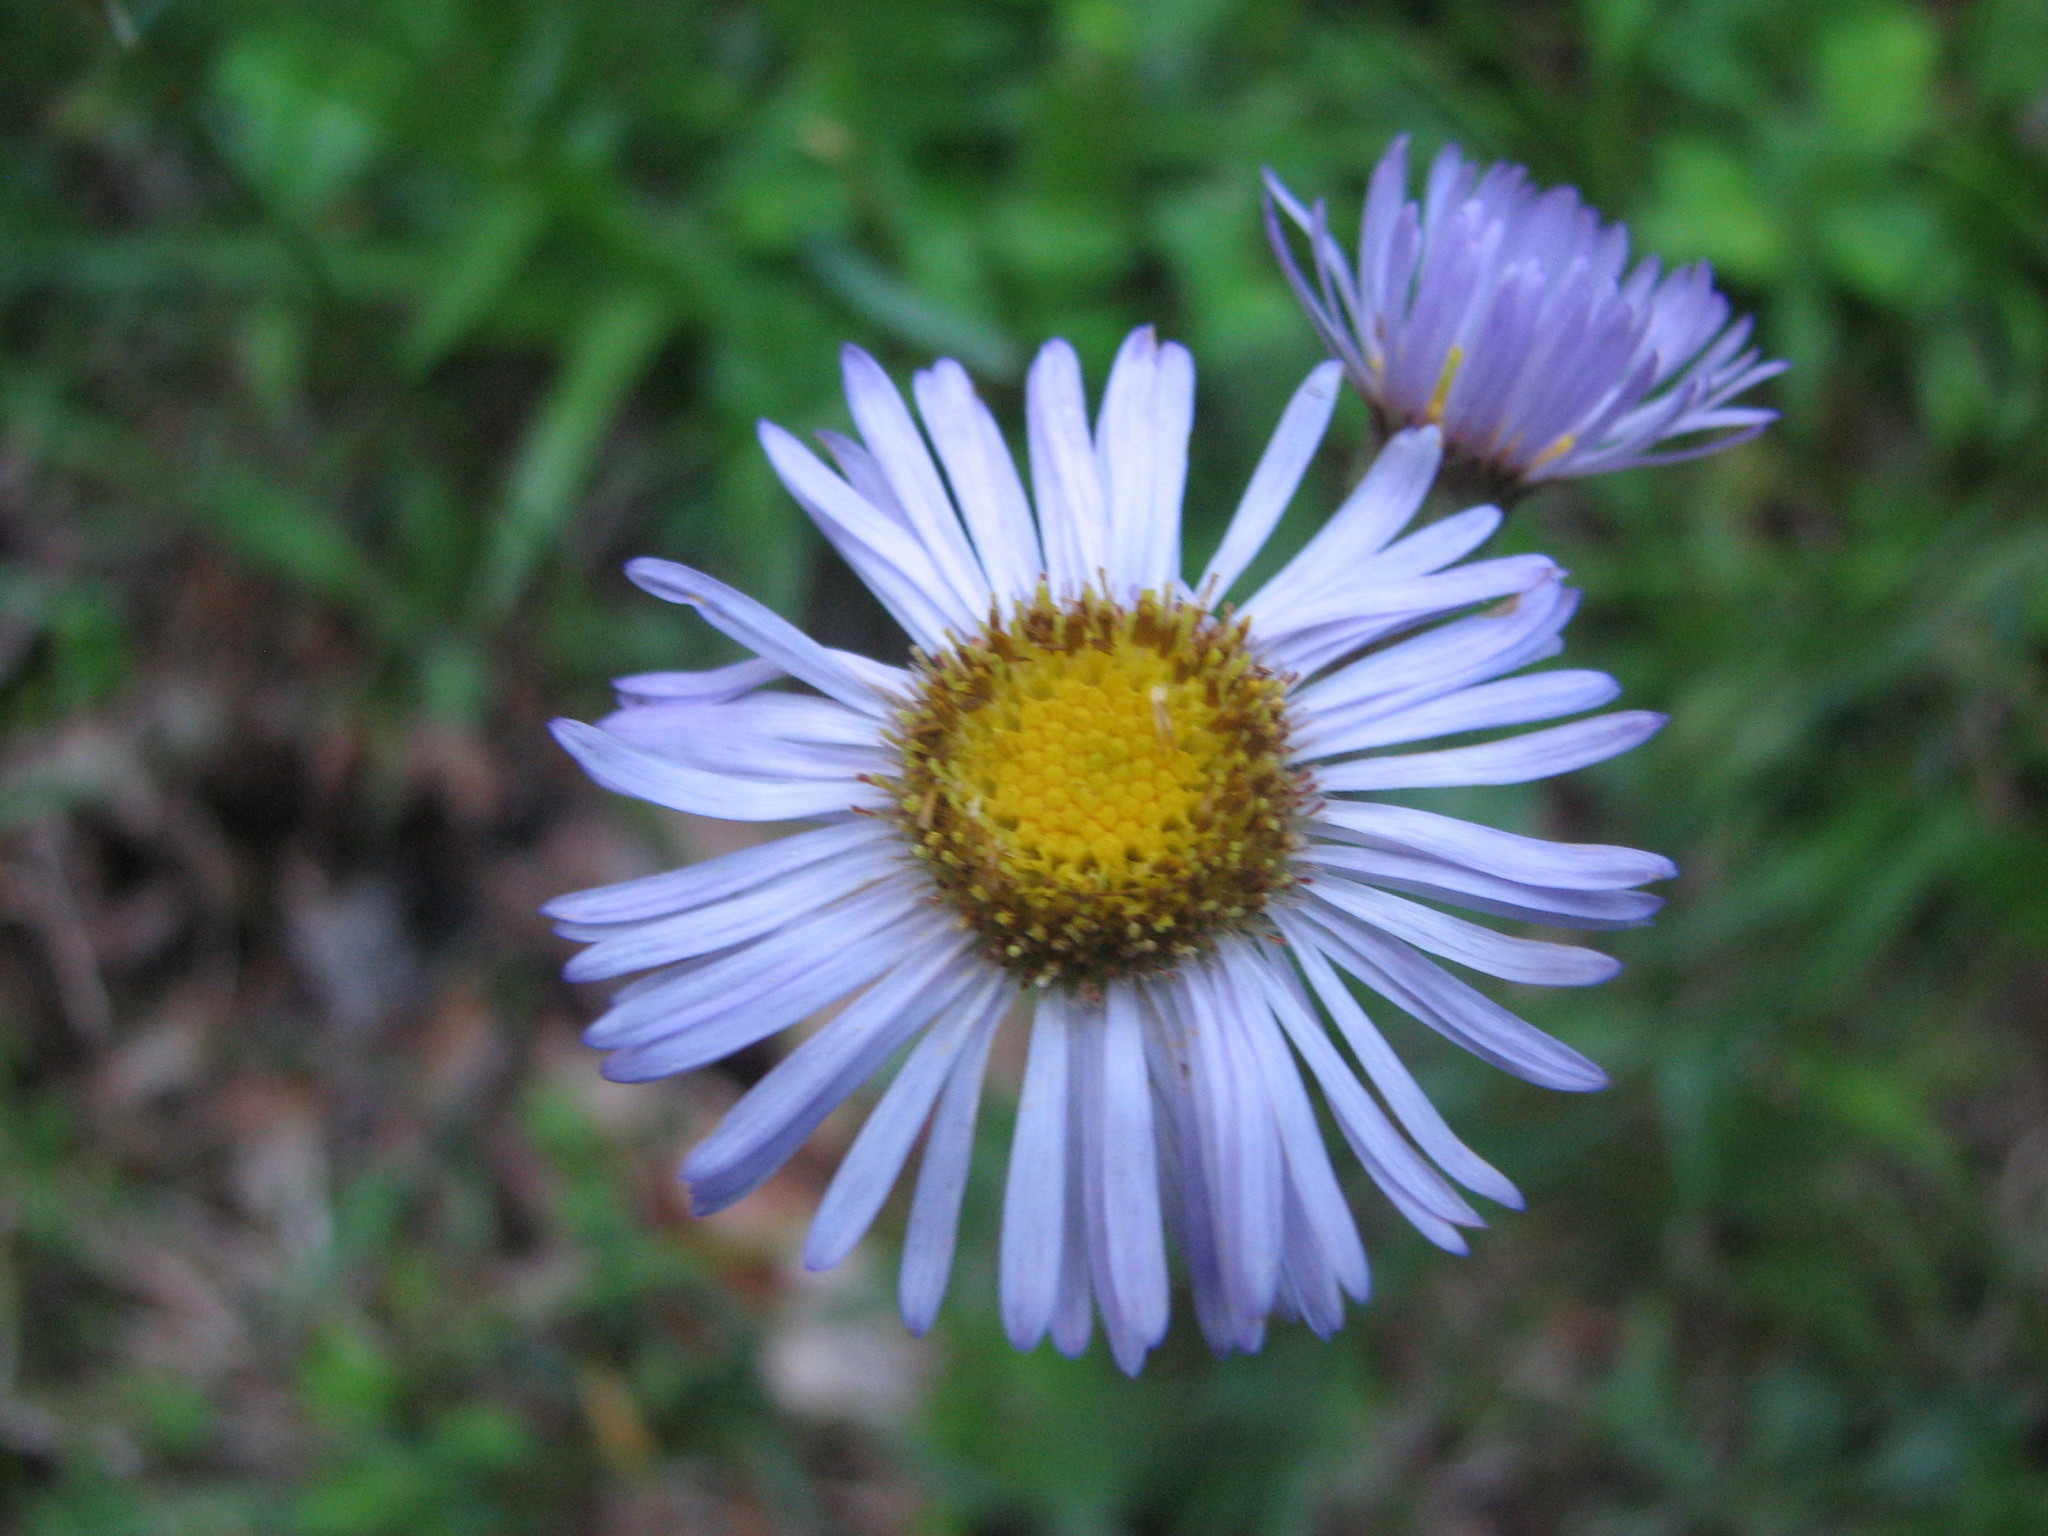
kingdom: Plantae
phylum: Tracheophyta
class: Magnoliopsida
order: Asterales
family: Asteraceae
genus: Erigeron
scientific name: Erigeron pulchellus
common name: Hairy fleabane
